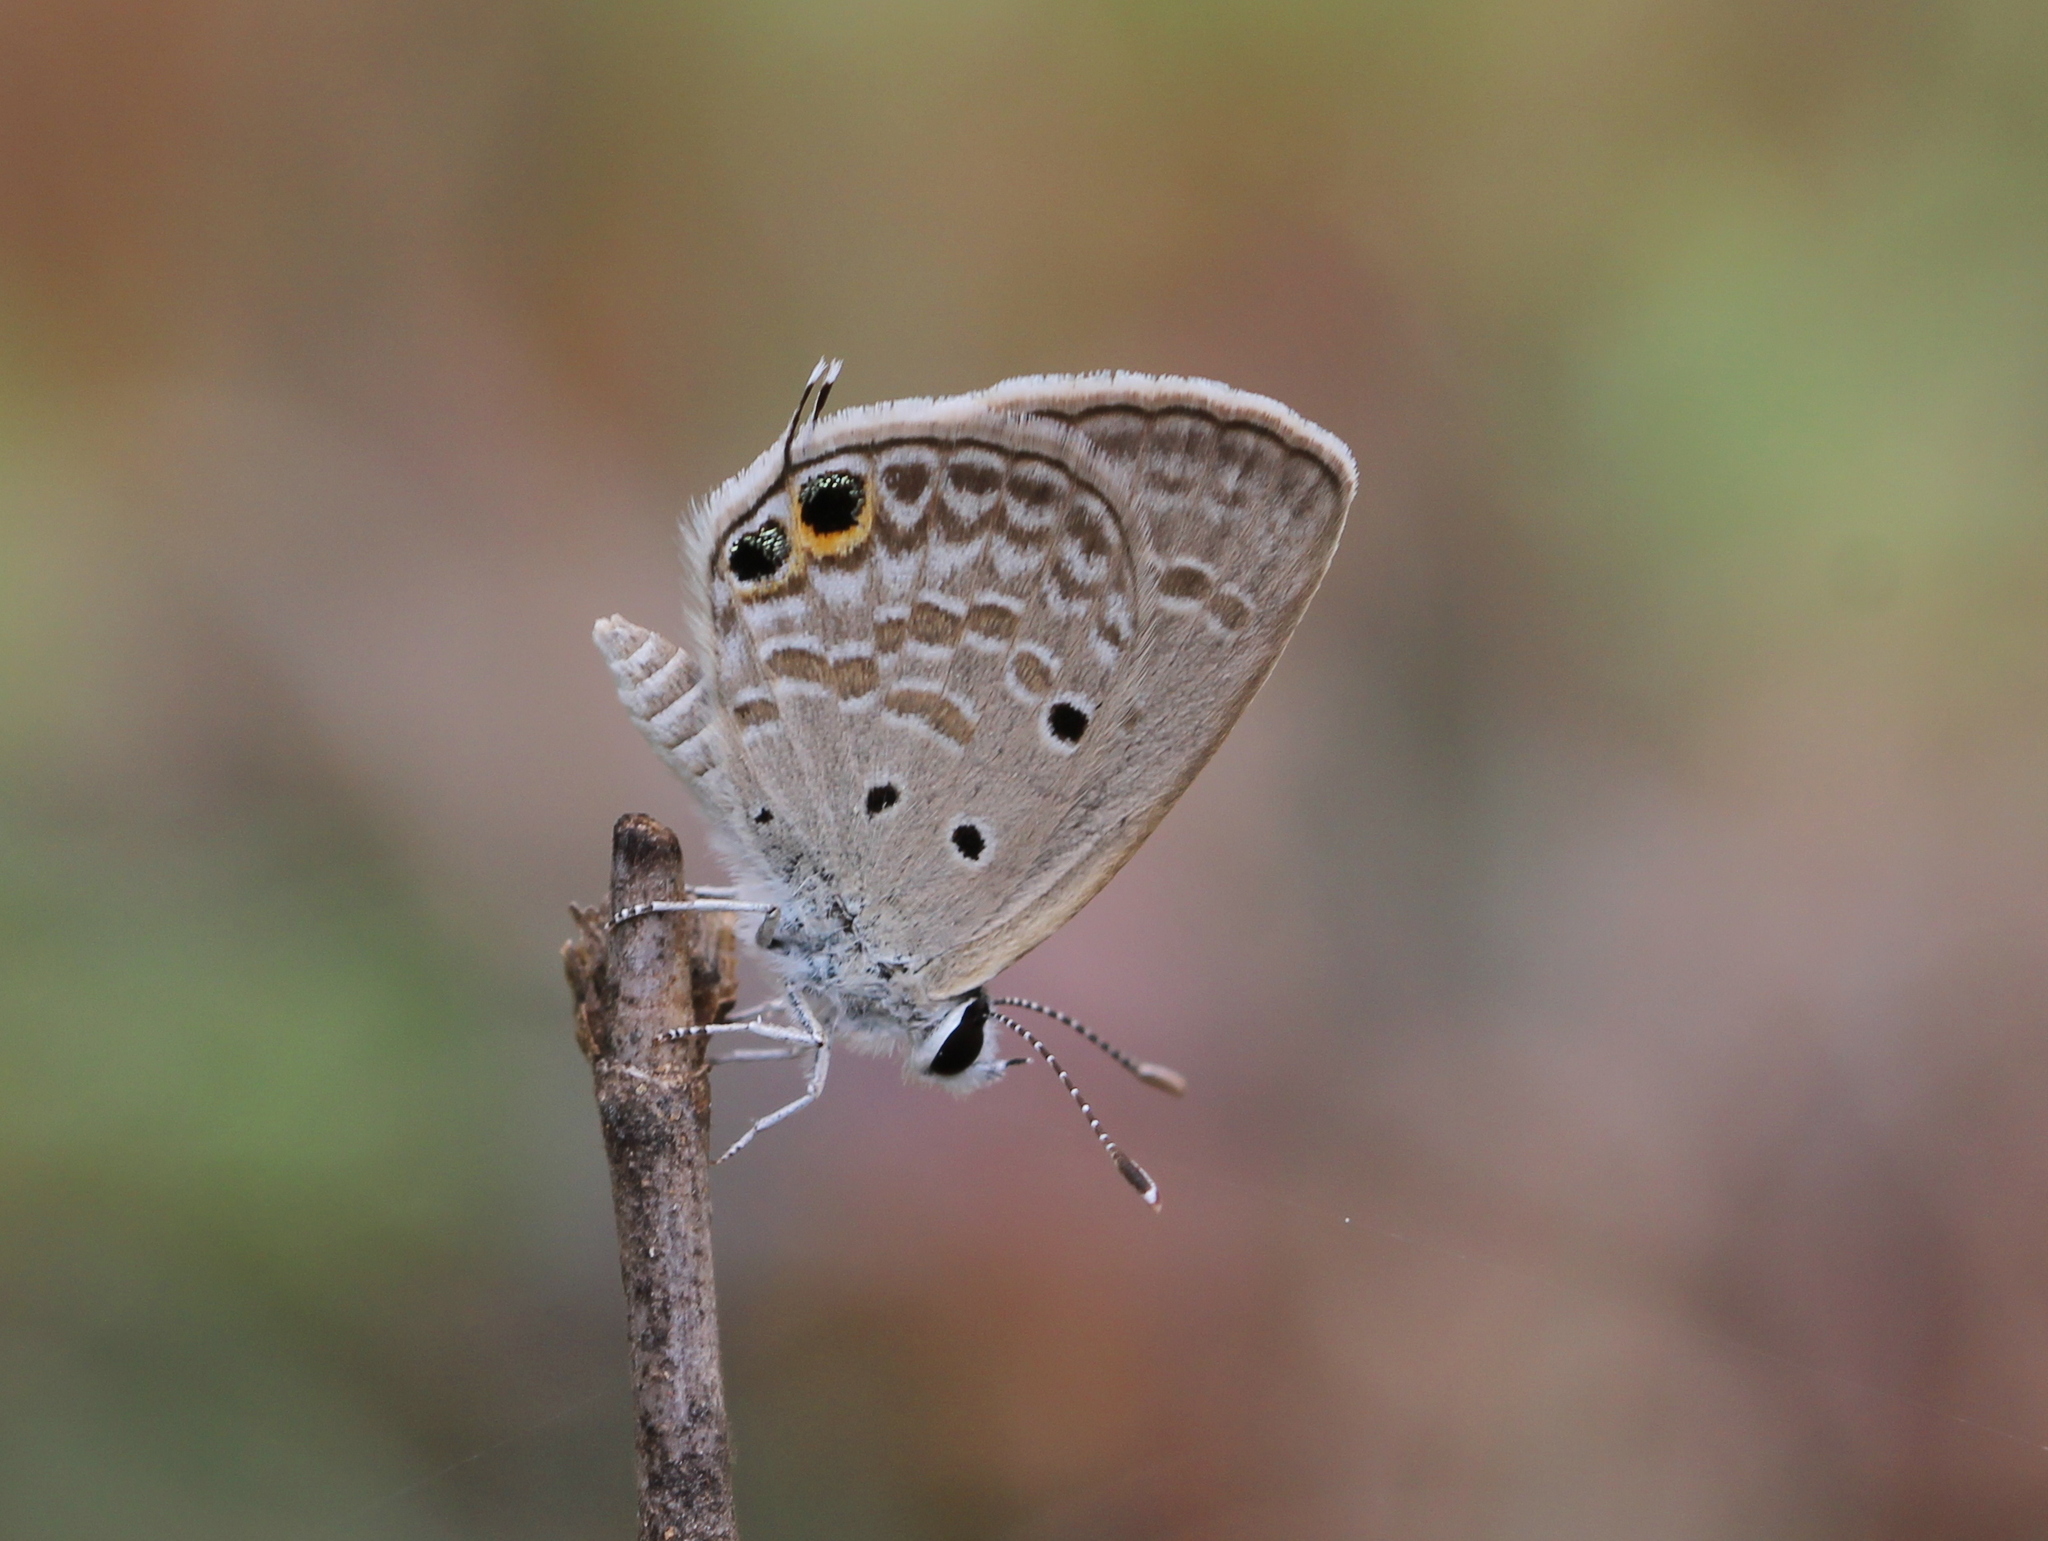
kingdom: Animalia
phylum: Arthropoda
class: Insecta
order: Lepidoptera
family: Lycaenidae
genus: Chilades
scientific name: Chilades parrhasius
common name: Small cupid
